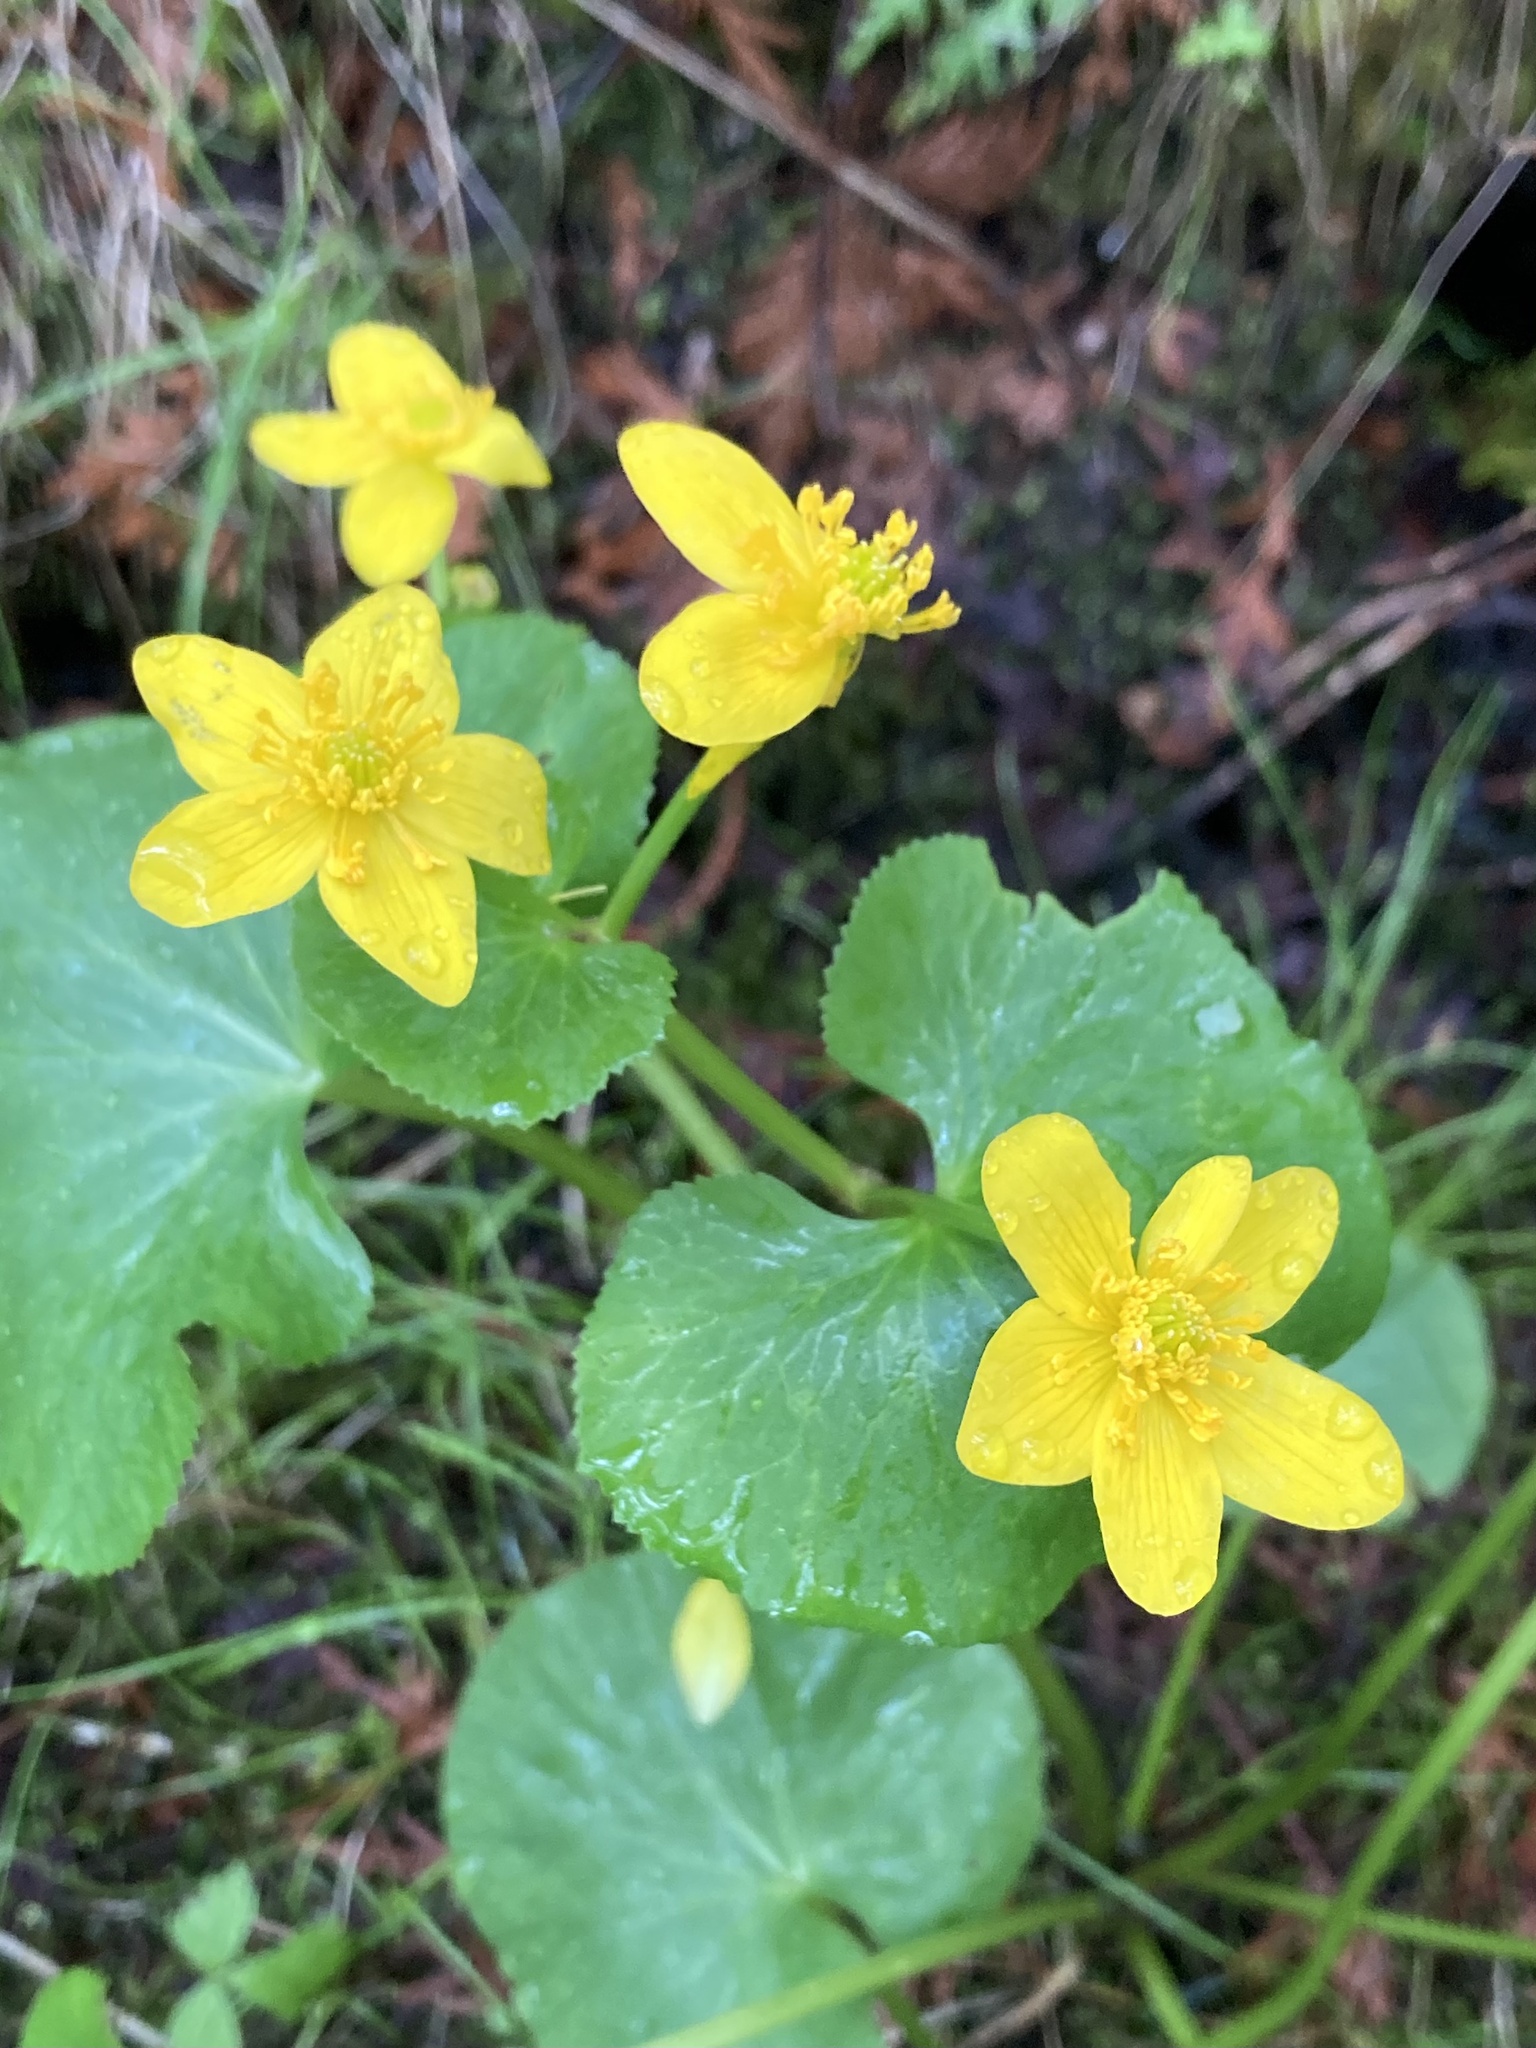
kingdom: Plantae
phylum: Tracheophyta
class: Magnoliopsida
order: Ranunculales
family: Ranunculaceae
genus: Caltha
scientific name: Caltha palustris
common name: Marsh marigold
